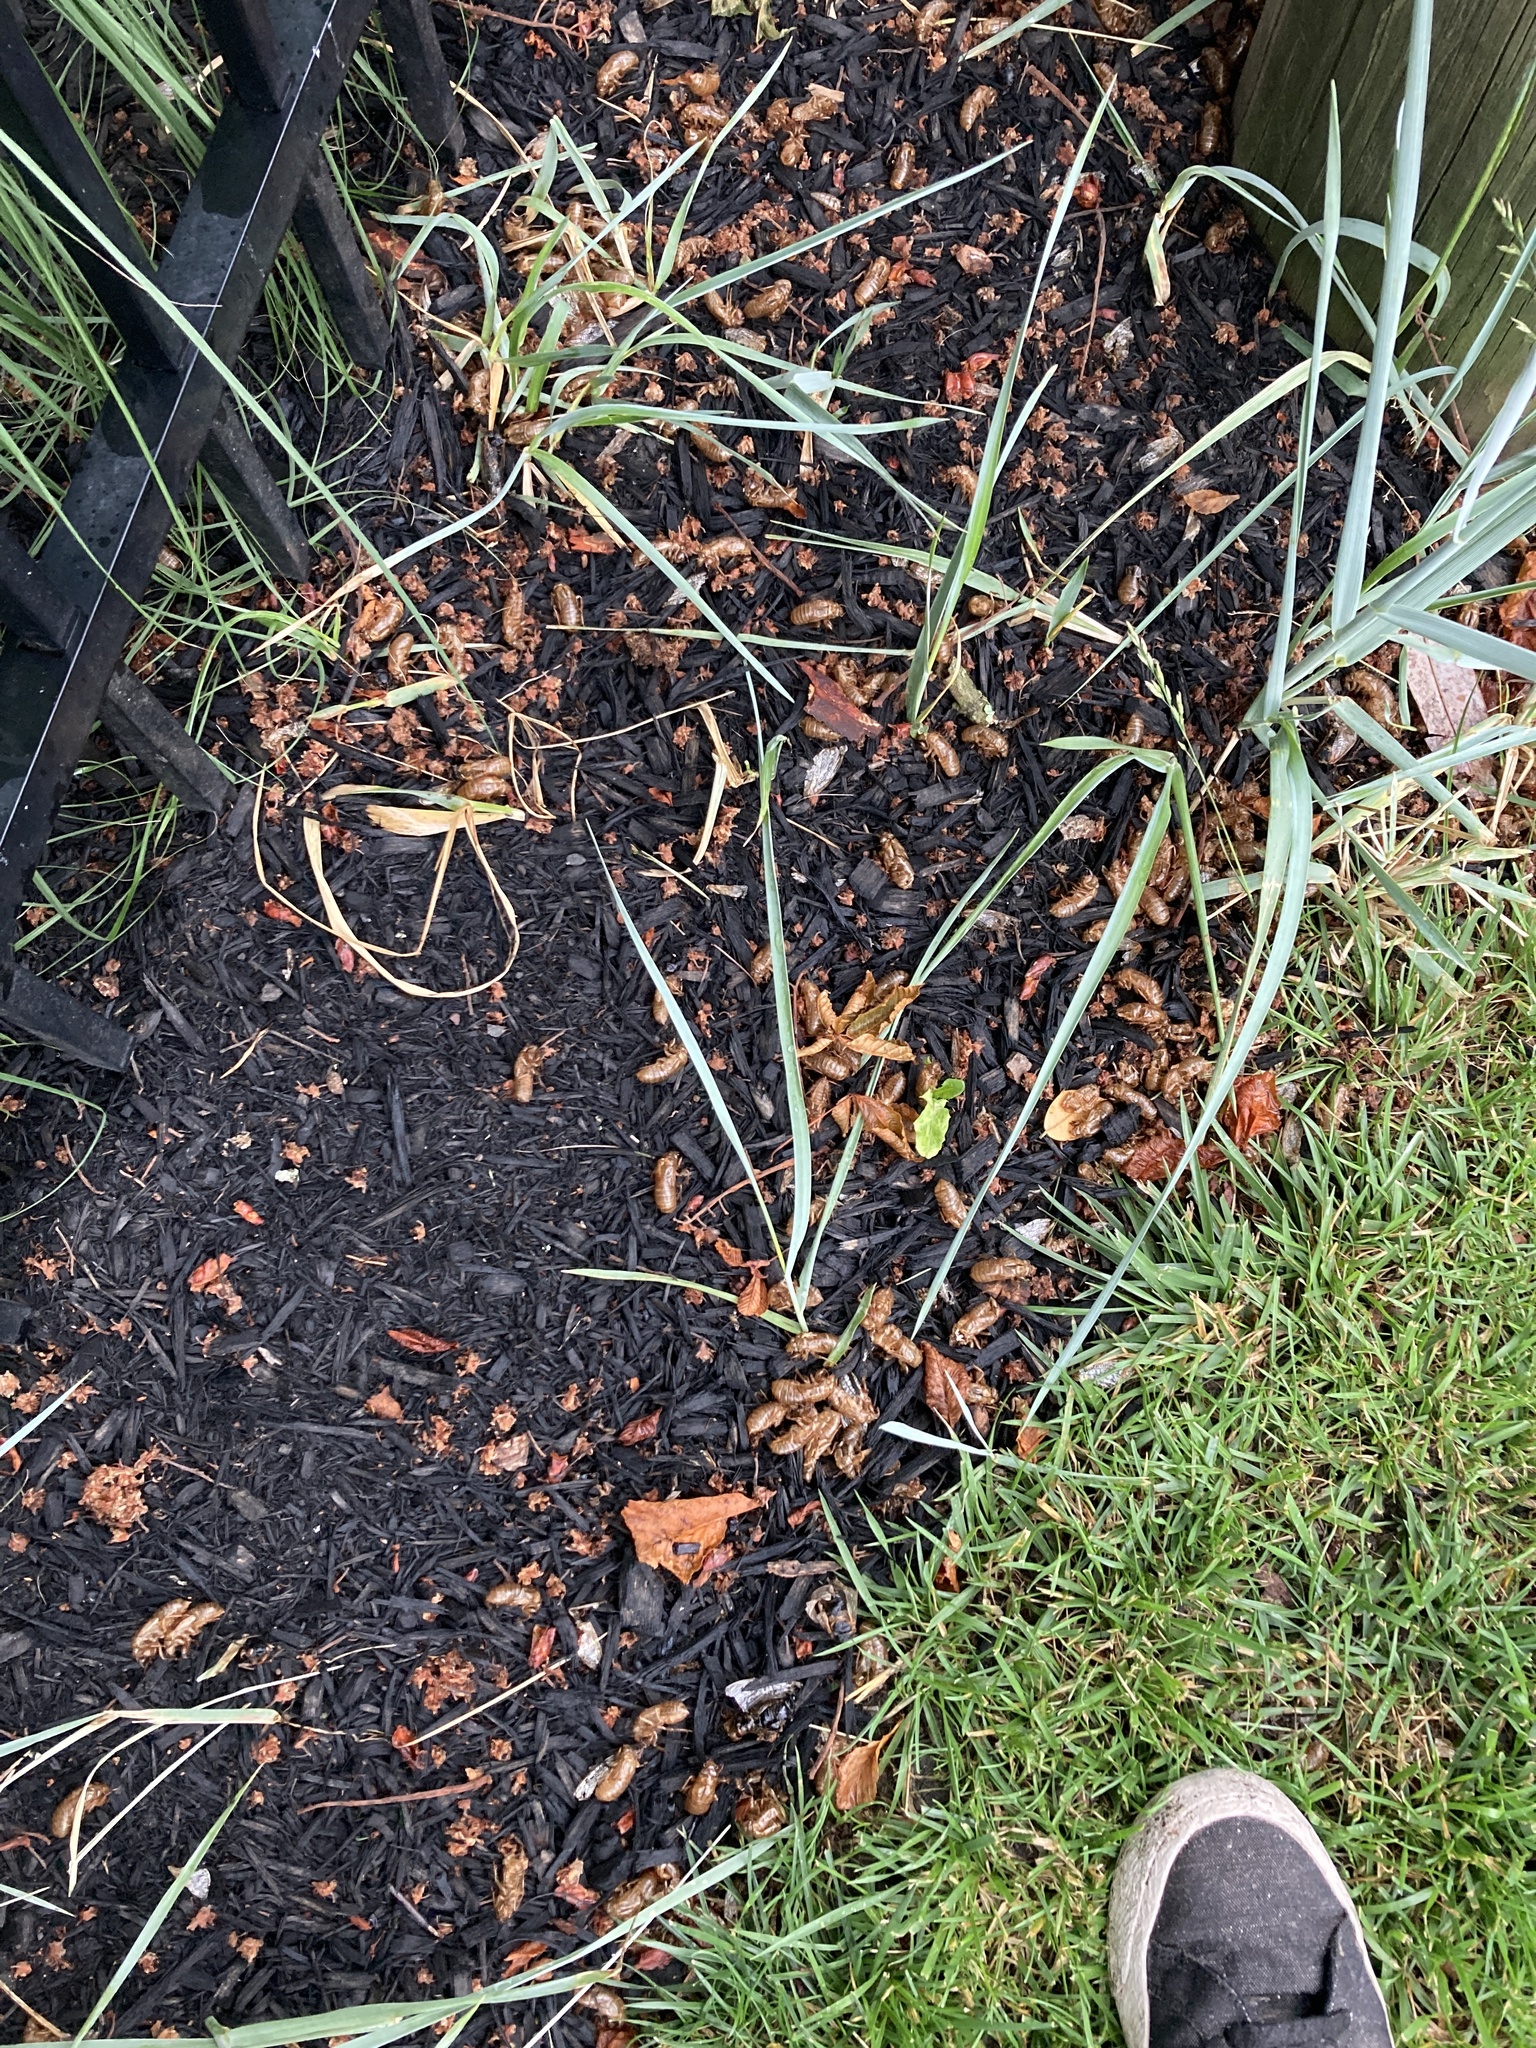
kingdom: Animalia
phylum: Arthropoda
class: Insecta
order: Hemiptera
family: Cicadidae
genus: Magicicada
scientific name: Magicicada
